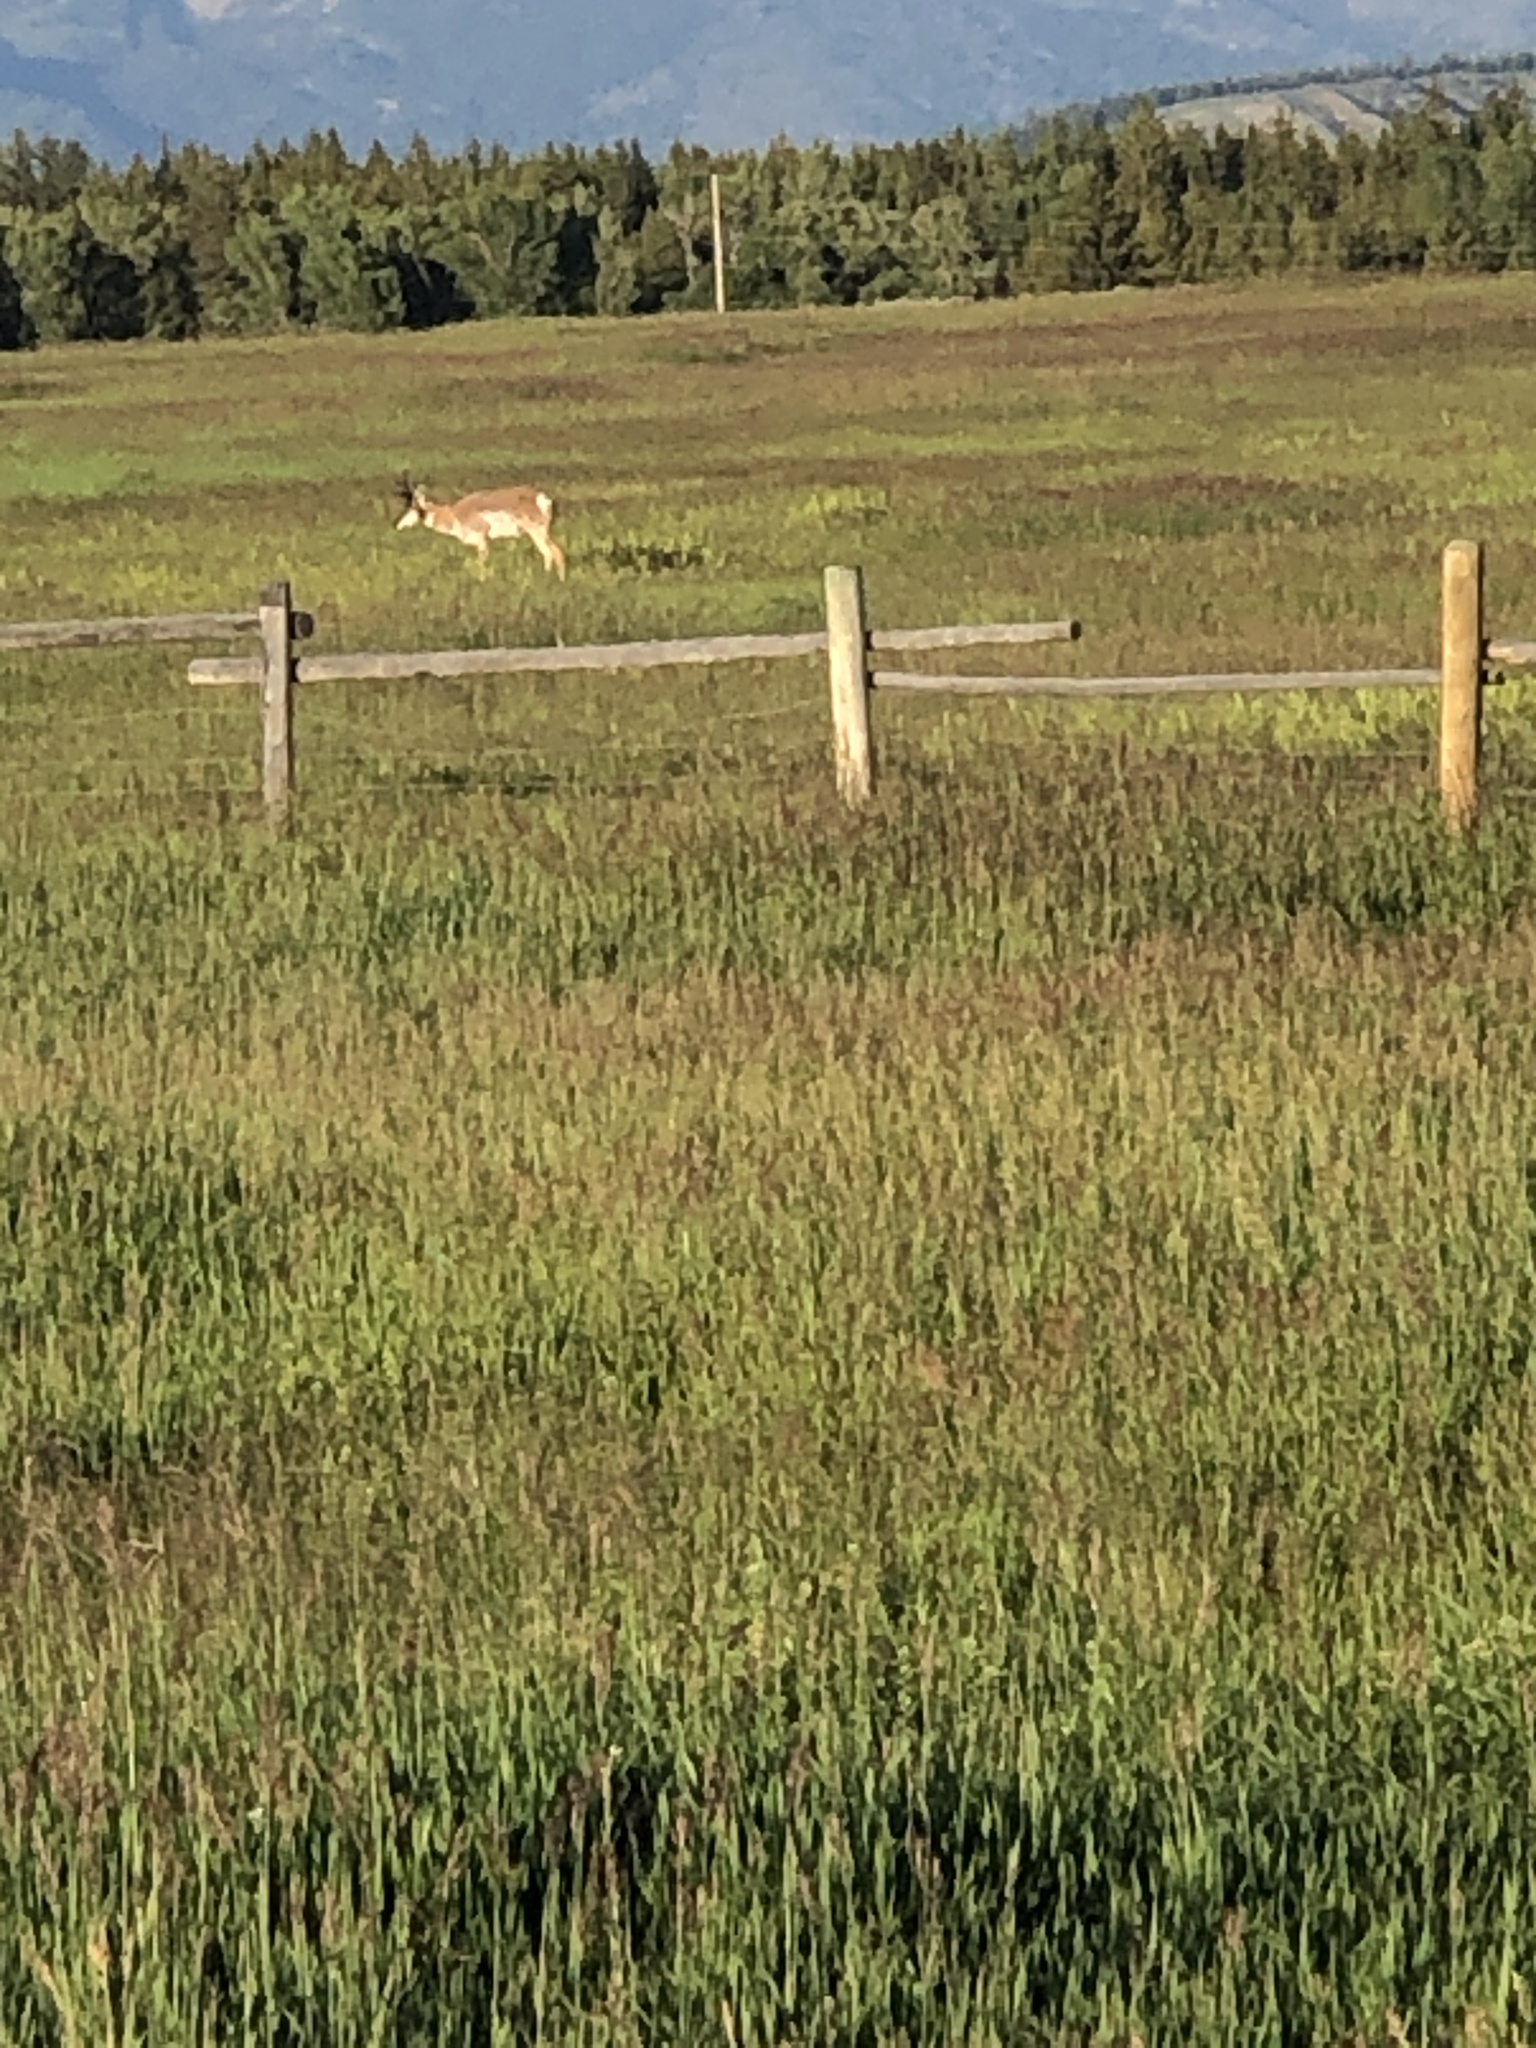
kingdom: Animalia
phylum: Chordata
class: Mammalia
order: Artiodactyla
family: Antilocapridae
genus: Antilocapra
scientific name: Antilocapra americana
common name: Pronghorn
